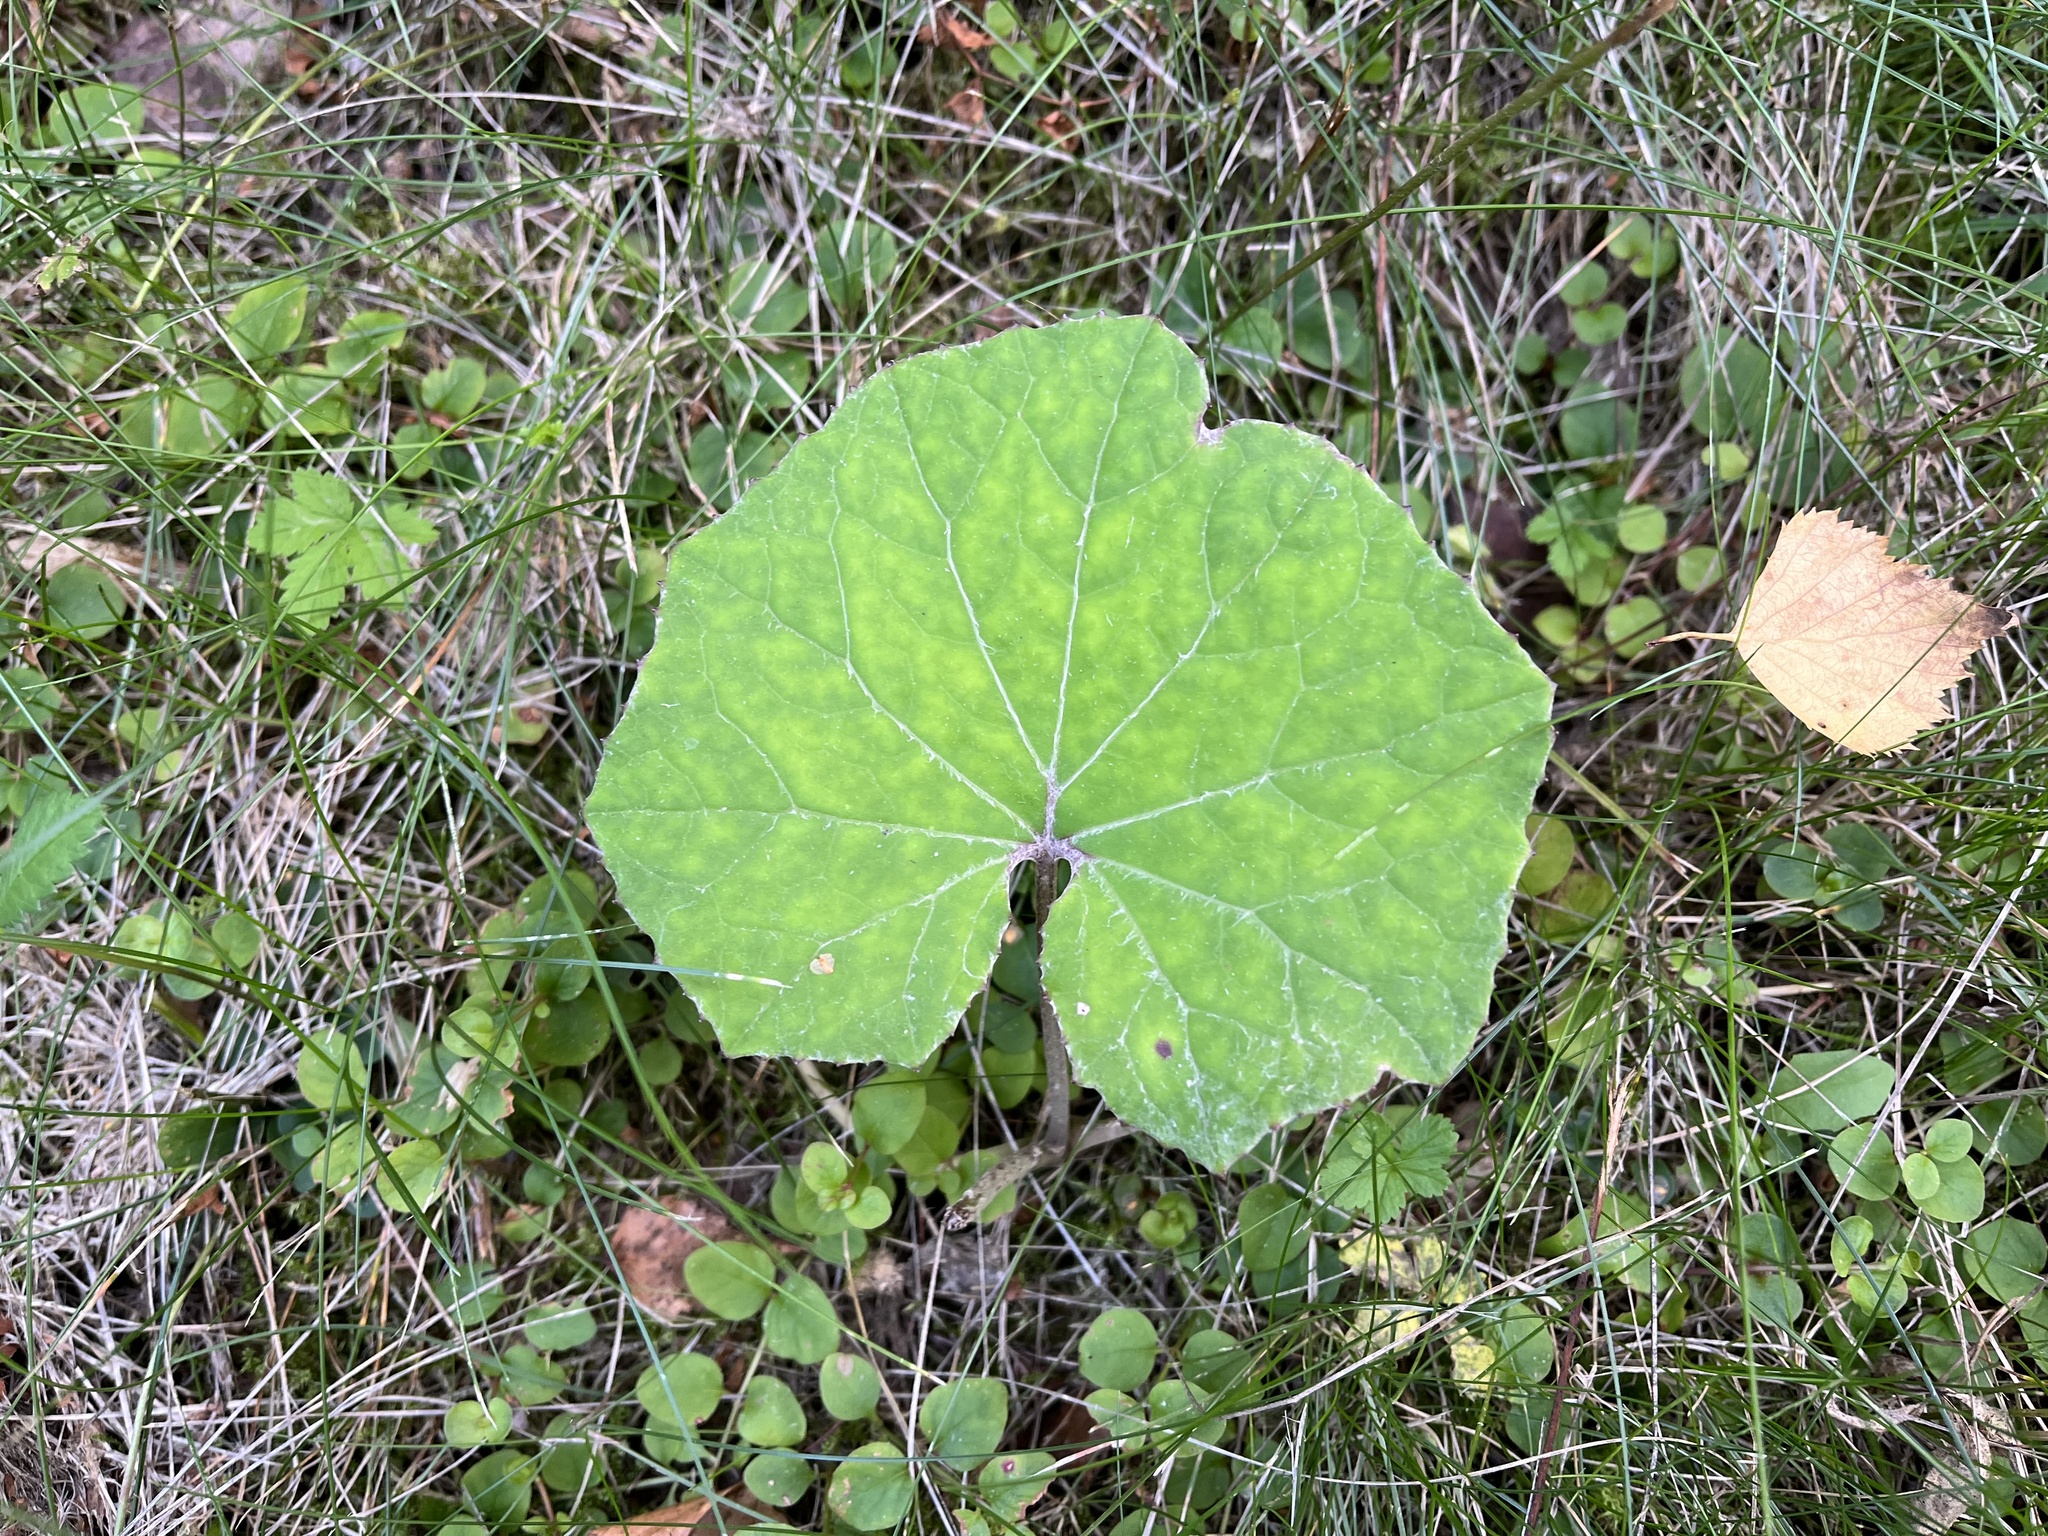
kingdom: Plantae
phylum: Tracheophyta
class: Magnoliopsida
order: Asterales
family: Asteraceae
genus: Tussilago
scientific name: Tussilago farfara
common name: Coltsfoot
